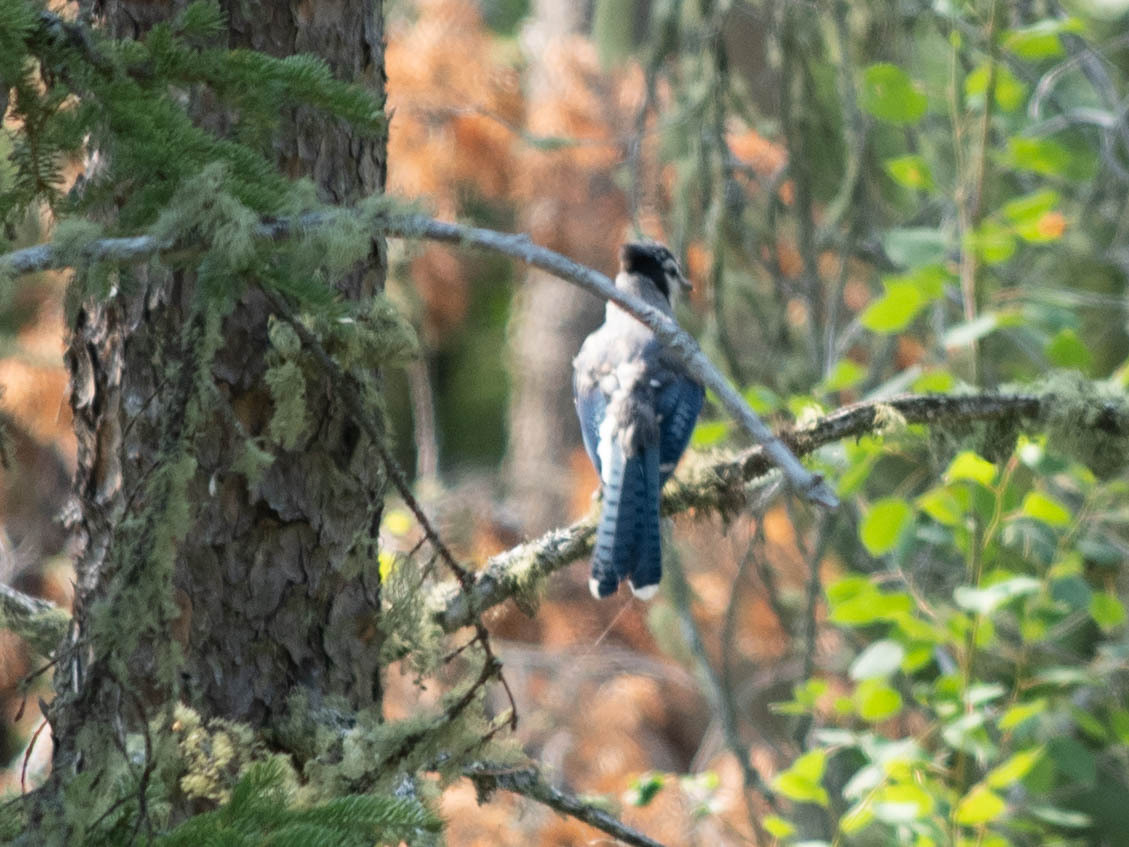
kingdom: Animalia
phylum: Chordata
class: Aves
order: Passeriformes
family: Corvidae
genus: Cyanocitta
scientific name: Cyanocitta cristata
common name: Blue jay
